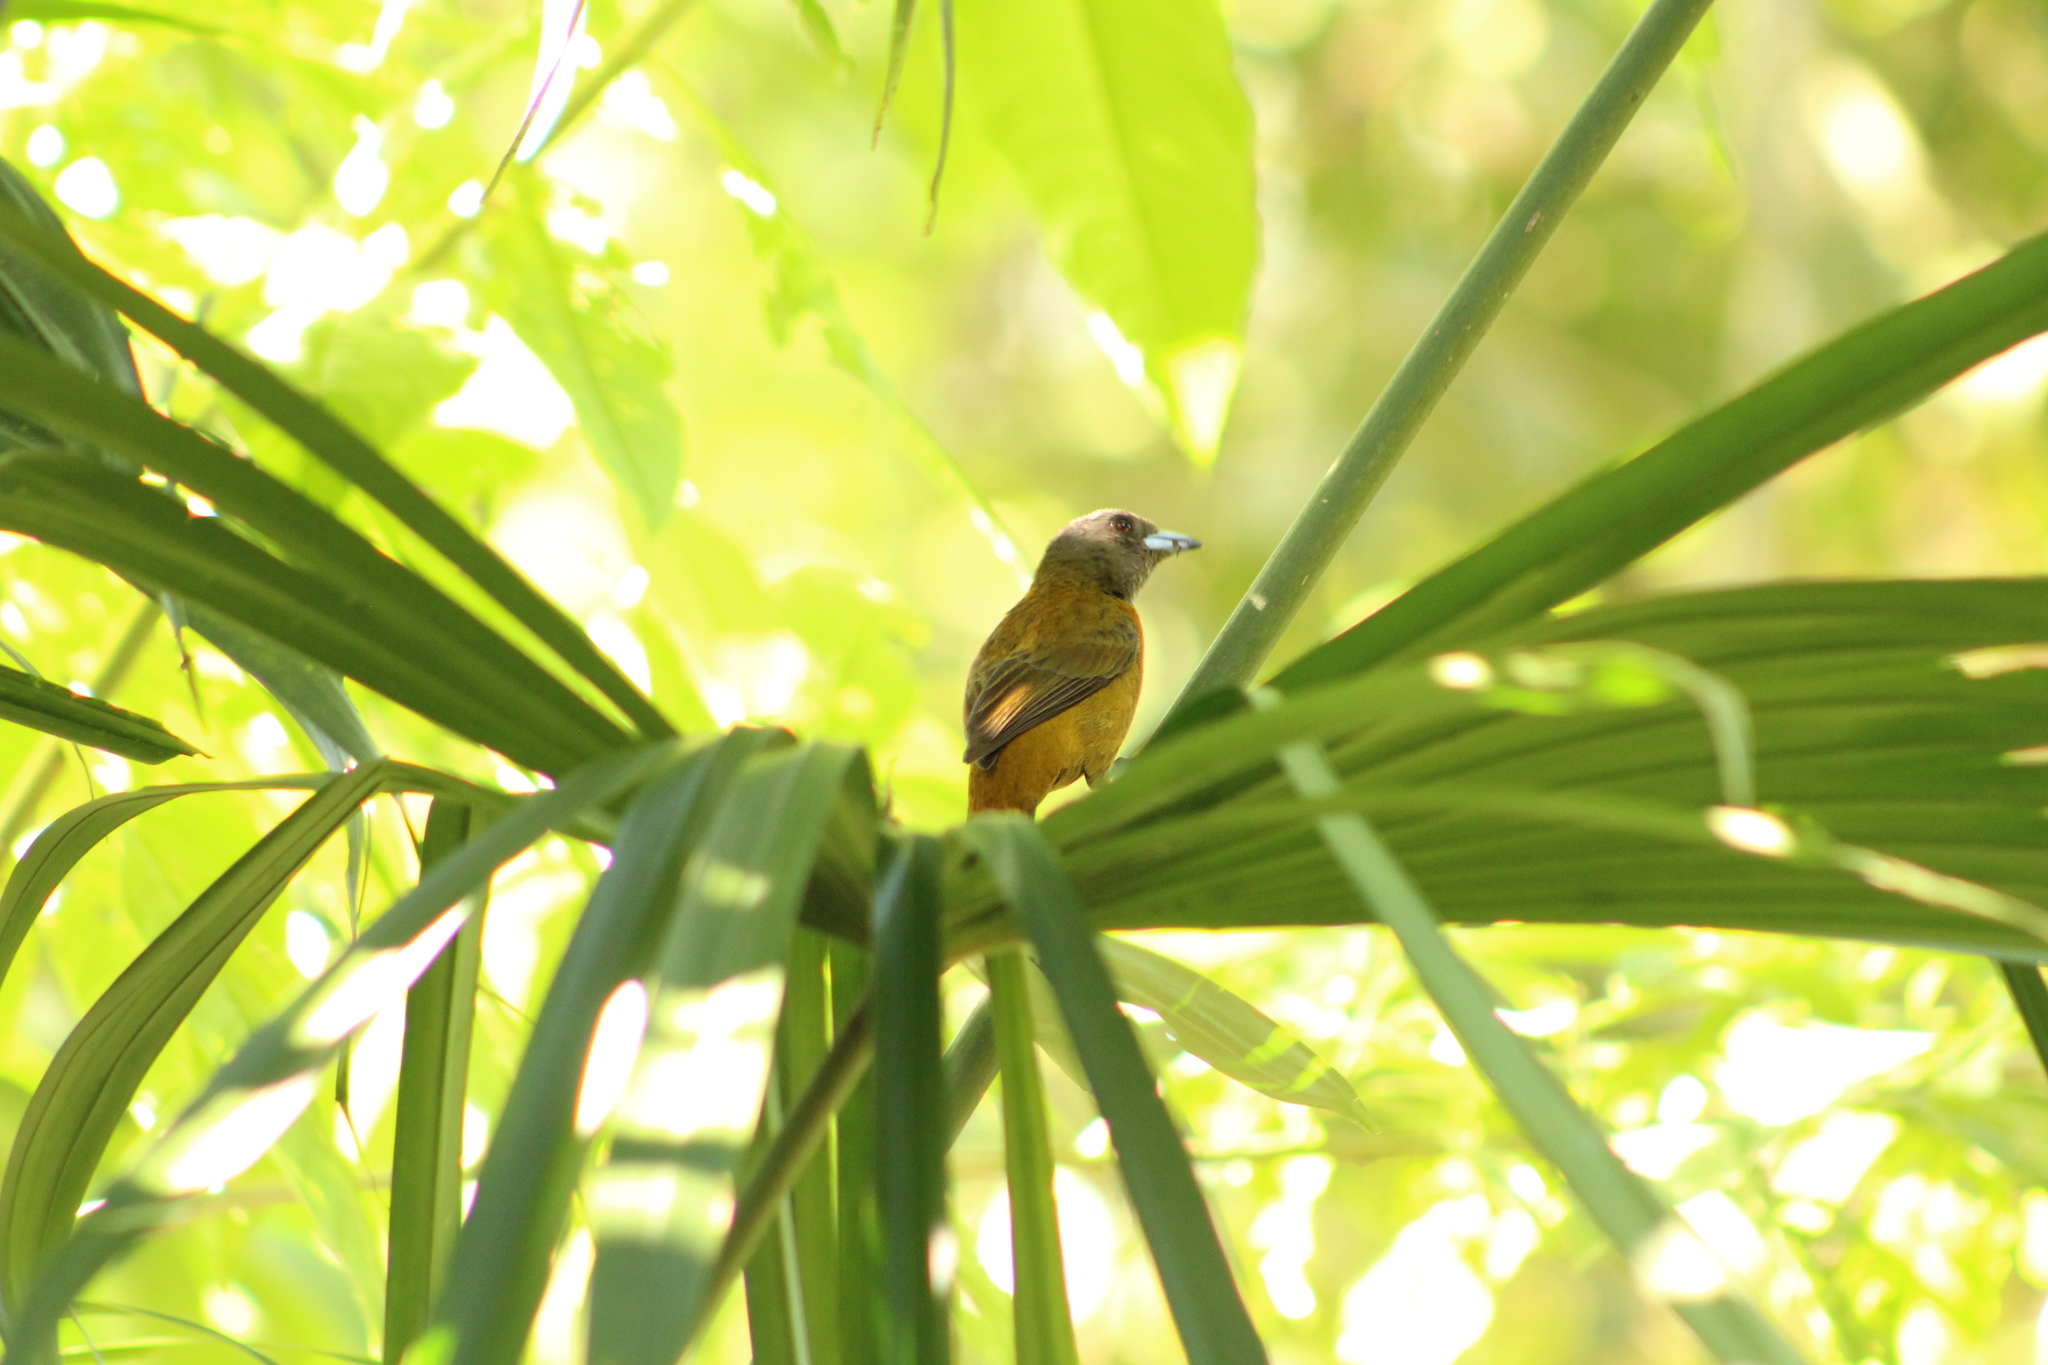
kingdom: Animalia
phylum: Chordata
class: Aves
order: Passeriformes
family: Thraupidae
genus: Ramphocelus
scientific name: Ramphocelus passerinii
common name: Passerini's tanager
